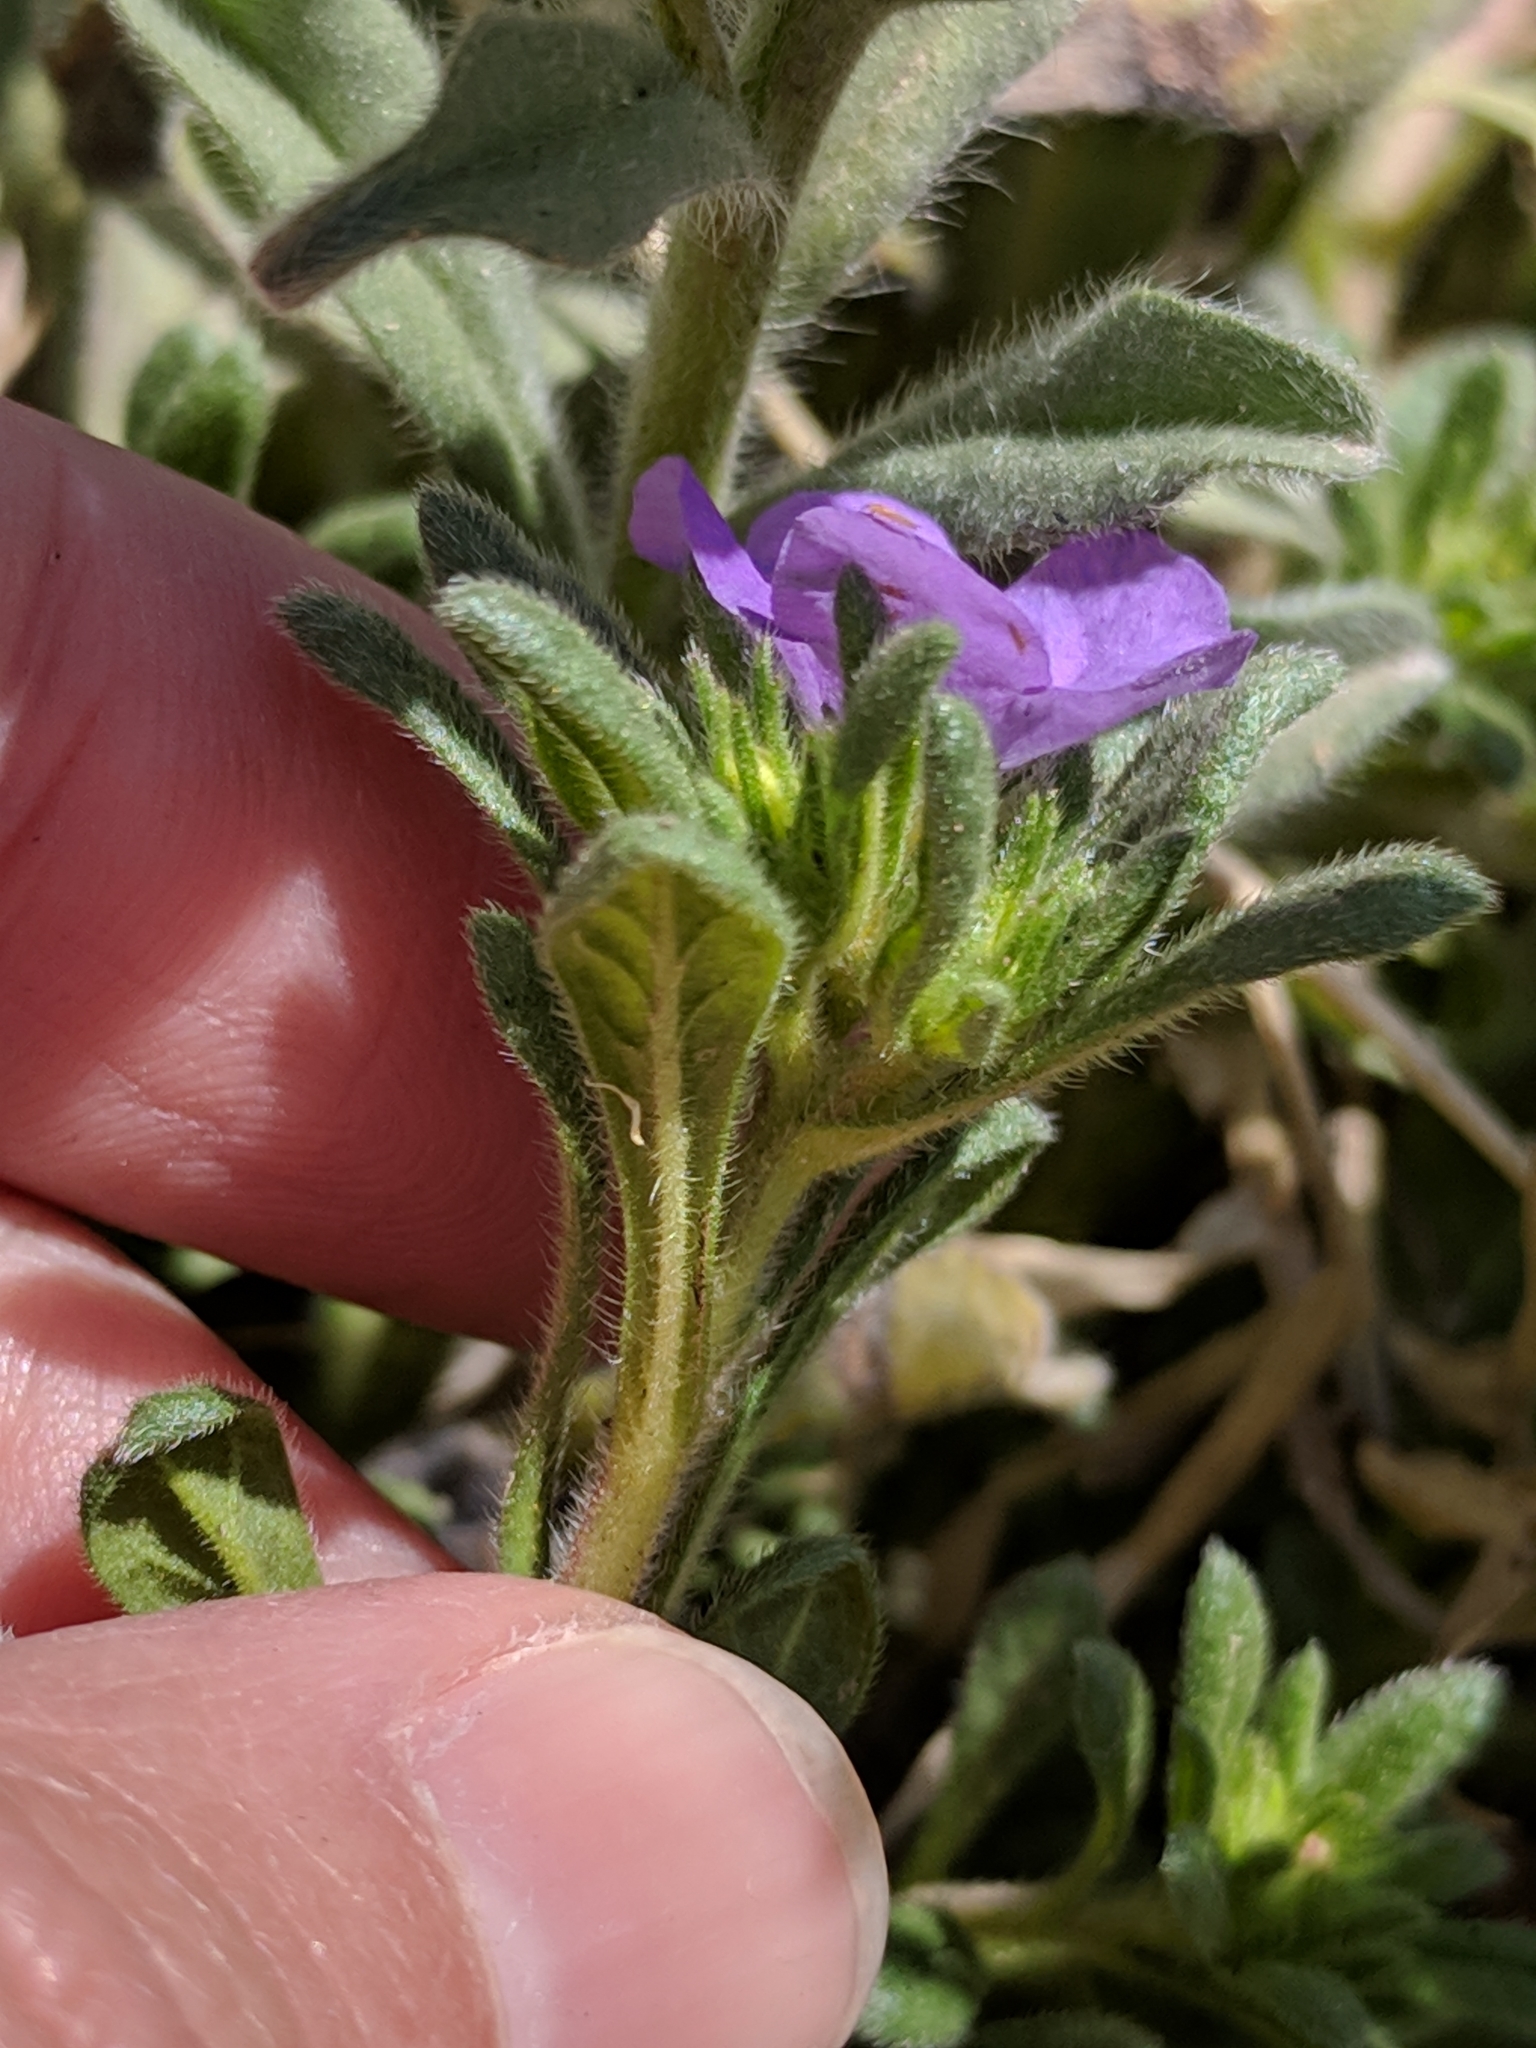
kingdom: Plantae
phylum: Tracheophyta
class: Magnoliopsida
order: Boraginales
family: Namaceae
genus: Nama
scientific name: Nama hispida
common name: Bristly nama
